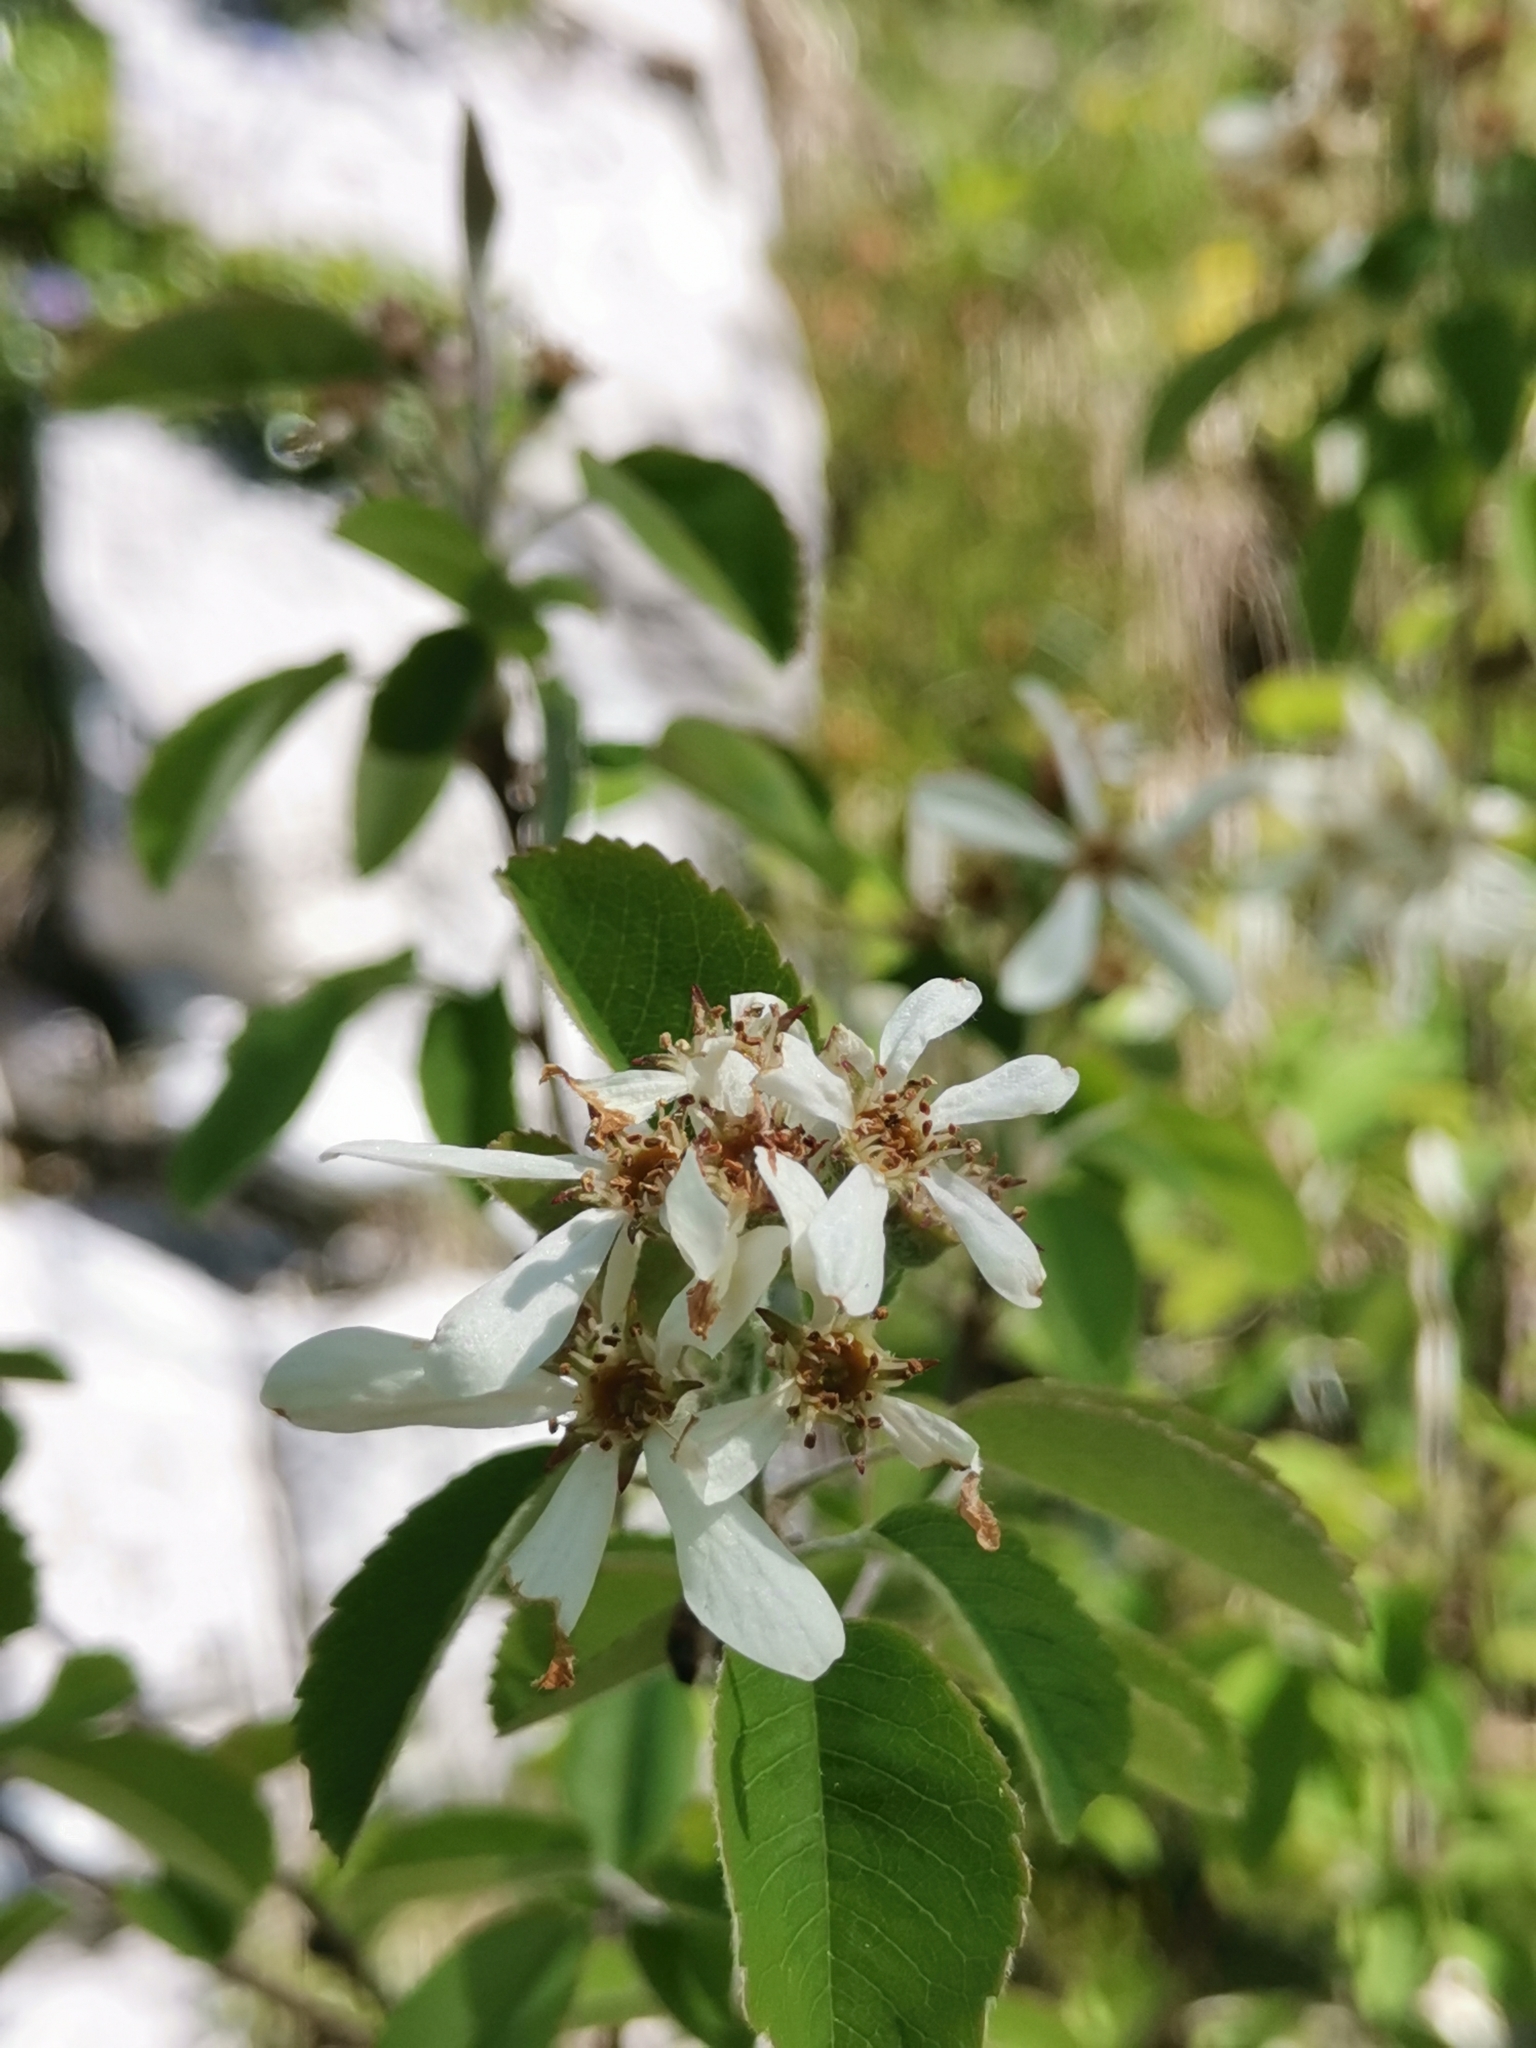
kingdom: Plantae
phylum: Tracheophyta
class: Magnoliopsida
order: Rosales
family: Rosaceae
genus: Amelanchier
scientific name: Amelanchier ovalis
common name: Serviceberry
